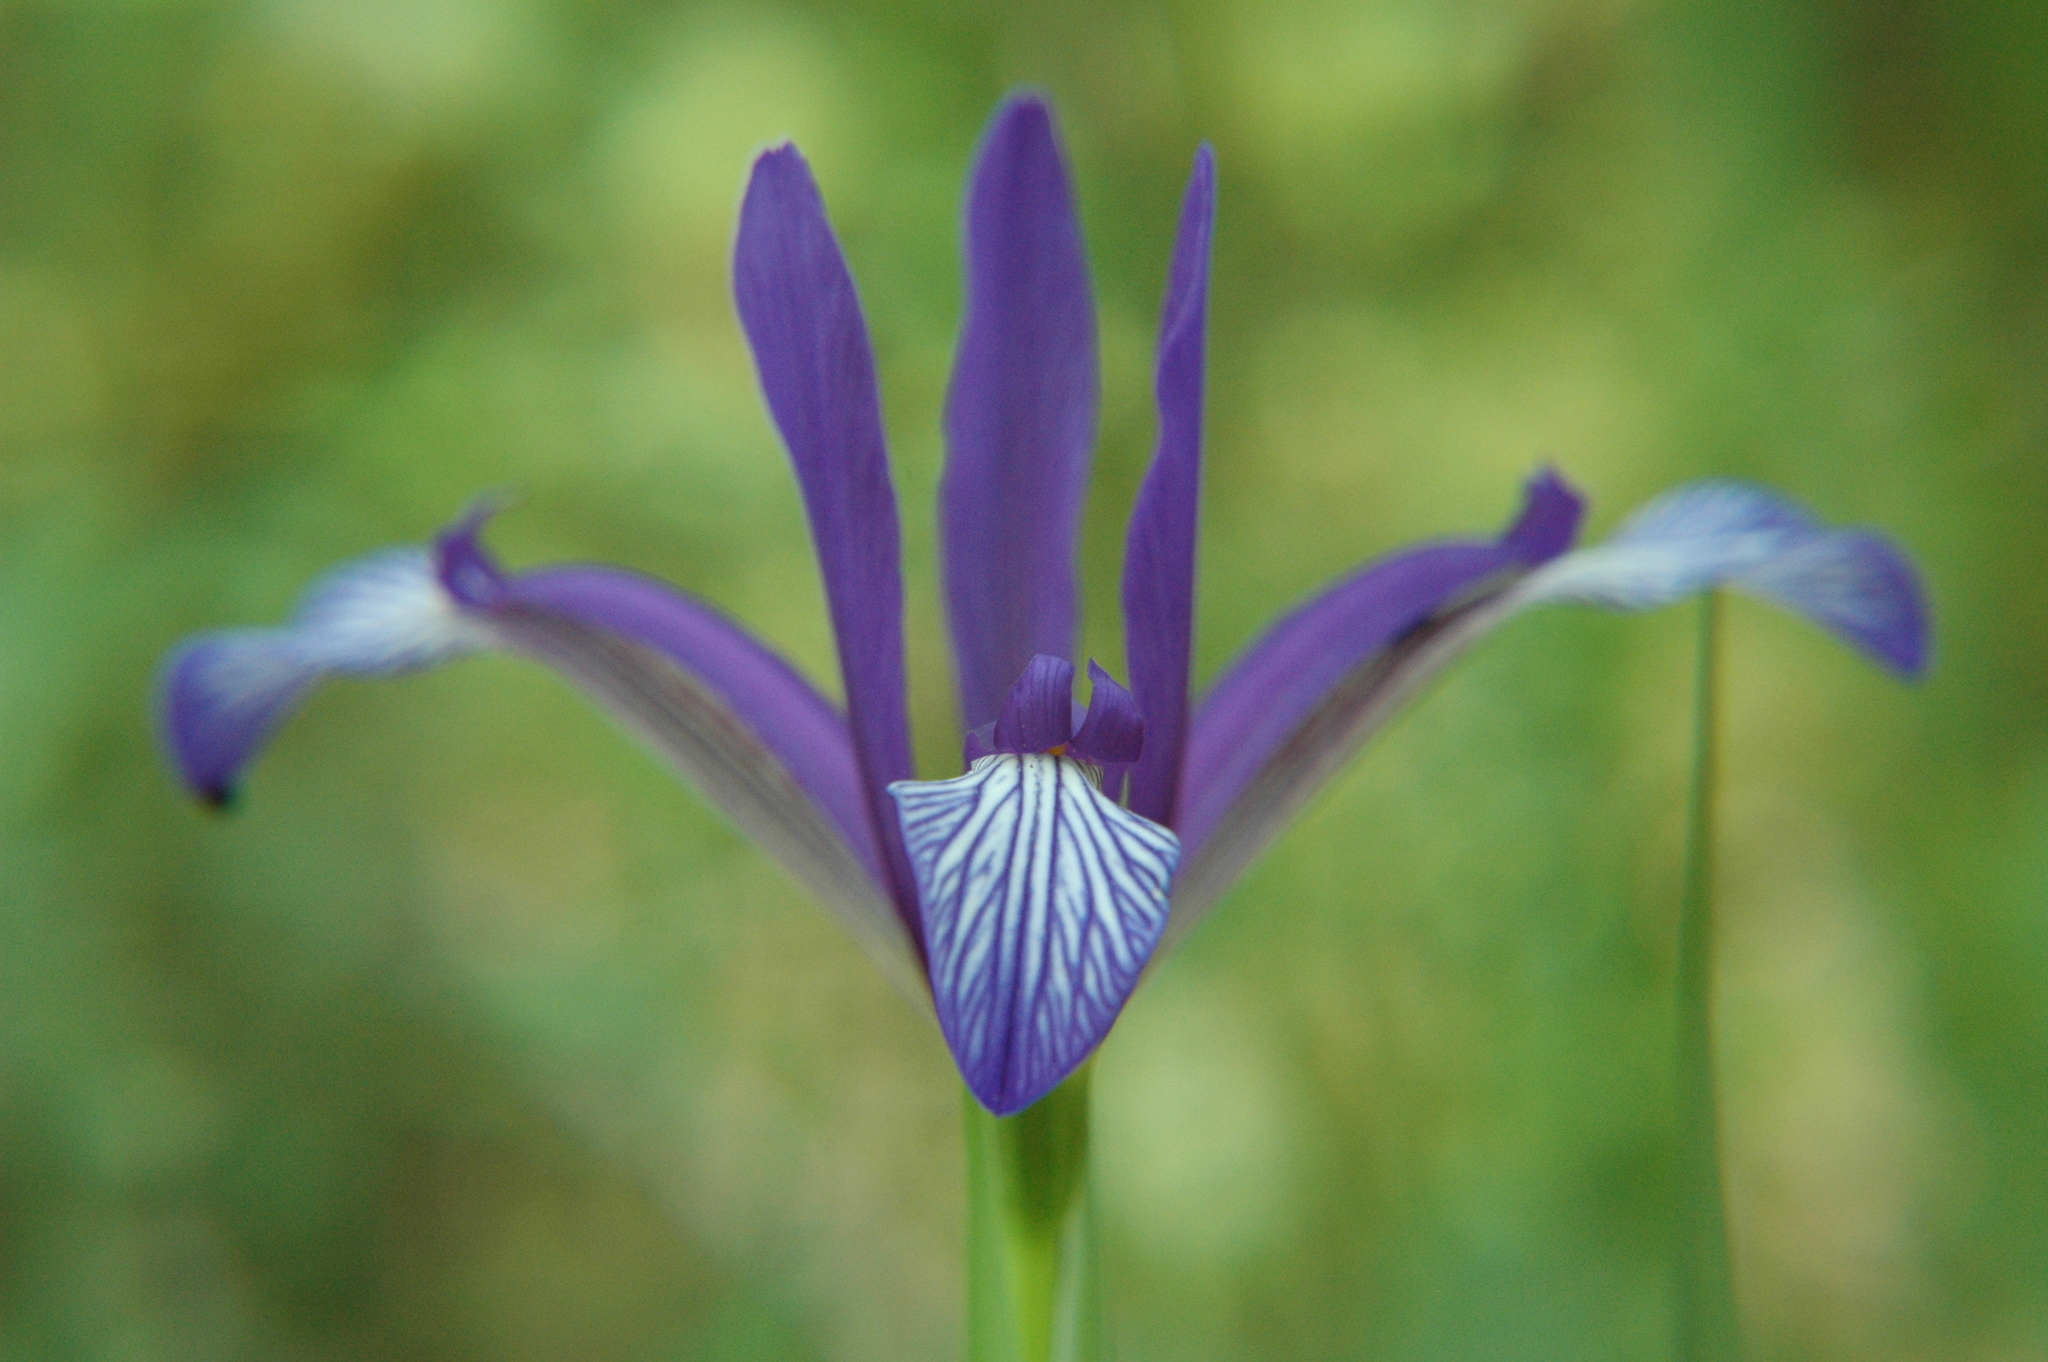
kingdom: Plantae
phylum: Tracheophyta
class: Liliopsida
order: Asparagales
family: Iridaceae
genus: Iris
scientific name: Iris sintenisii
